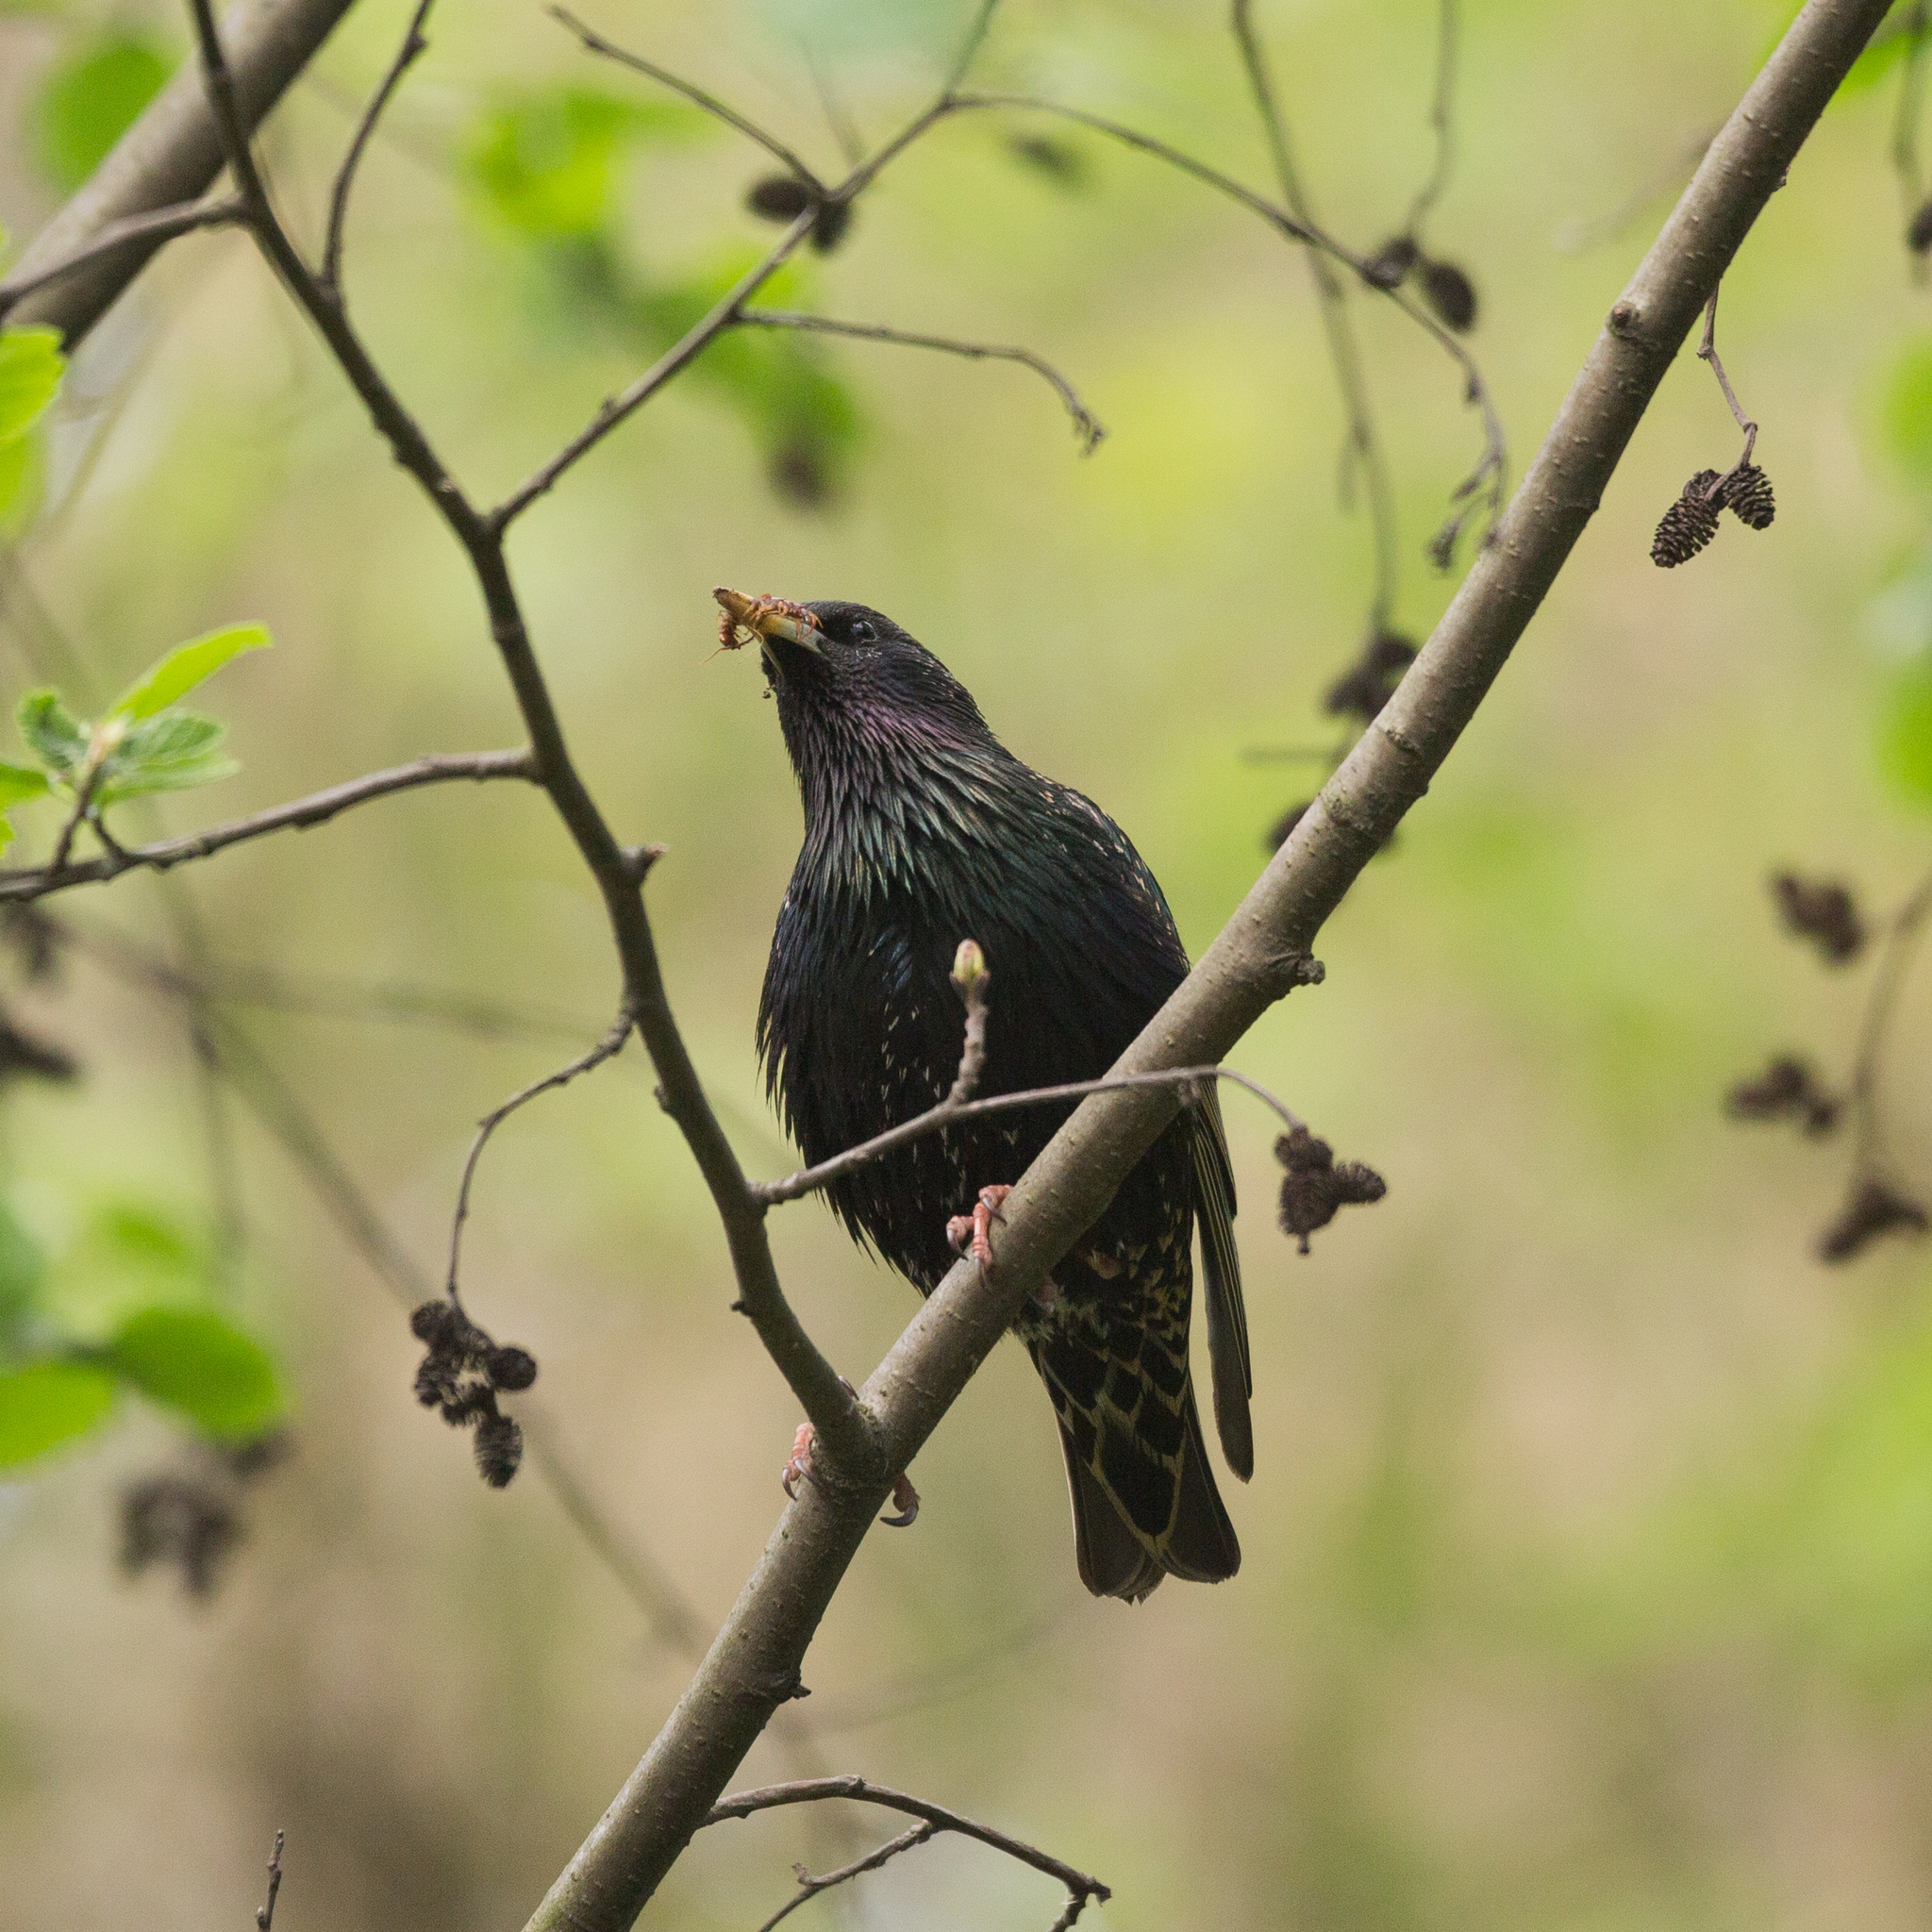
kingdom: Animalia
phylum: Chordata
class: Aves
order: Passeriformes
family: Sturnidae
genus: Sturnus
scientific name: Sturnus vulgaris
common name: Common starling
